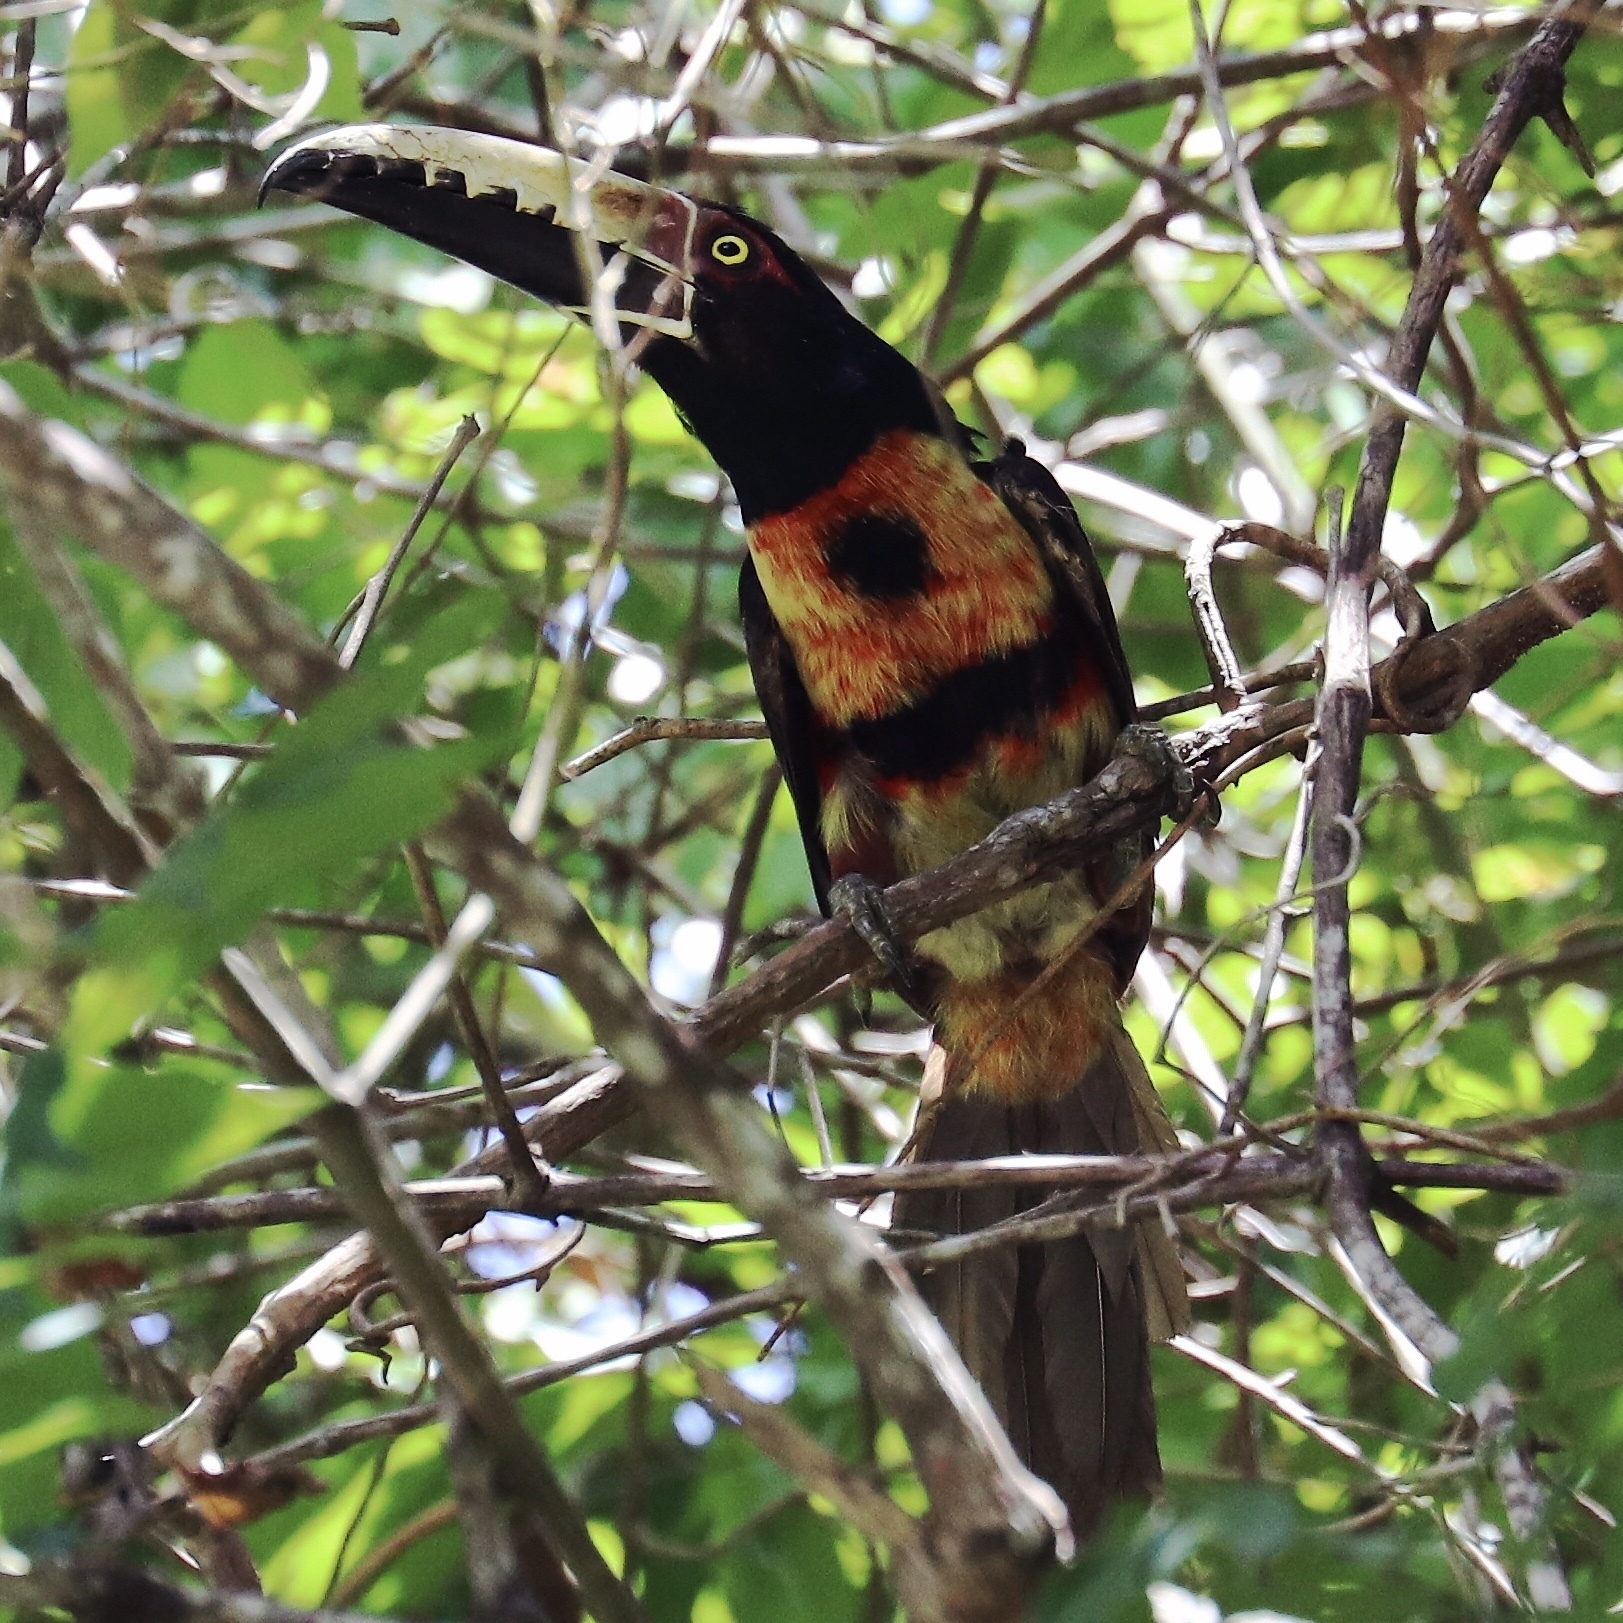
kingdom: Animalia
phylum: Chordata
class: Aves
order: Piciformes
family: Ramphastidae
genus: Pteroglossus
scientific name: Pteroglossus torquatus
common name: Collared aracari
